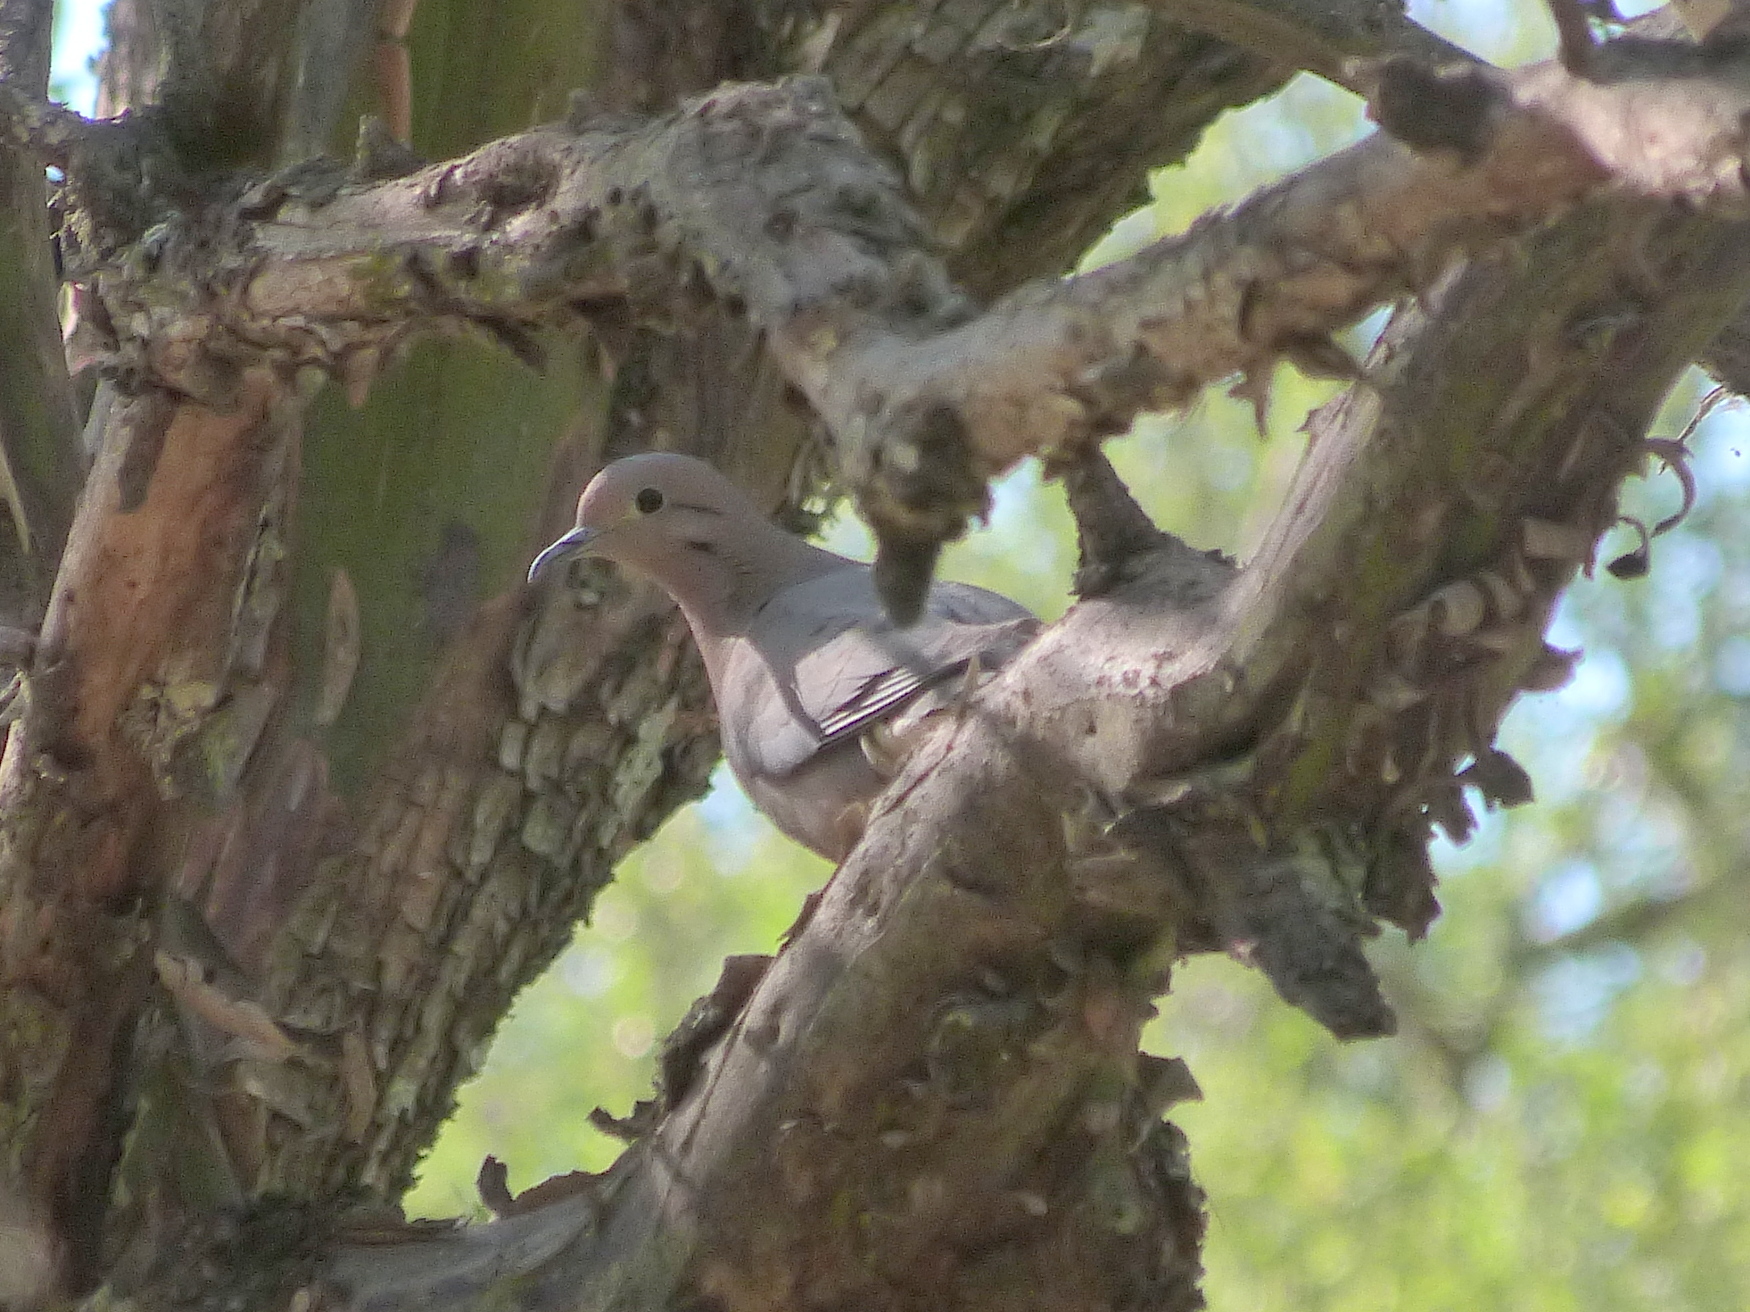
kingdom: Animalia
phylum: Chordata
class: Aves
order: Columbiformes
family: Columbidae
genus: Zenaida
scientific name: Zenaida auriculata
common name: Eared dove
